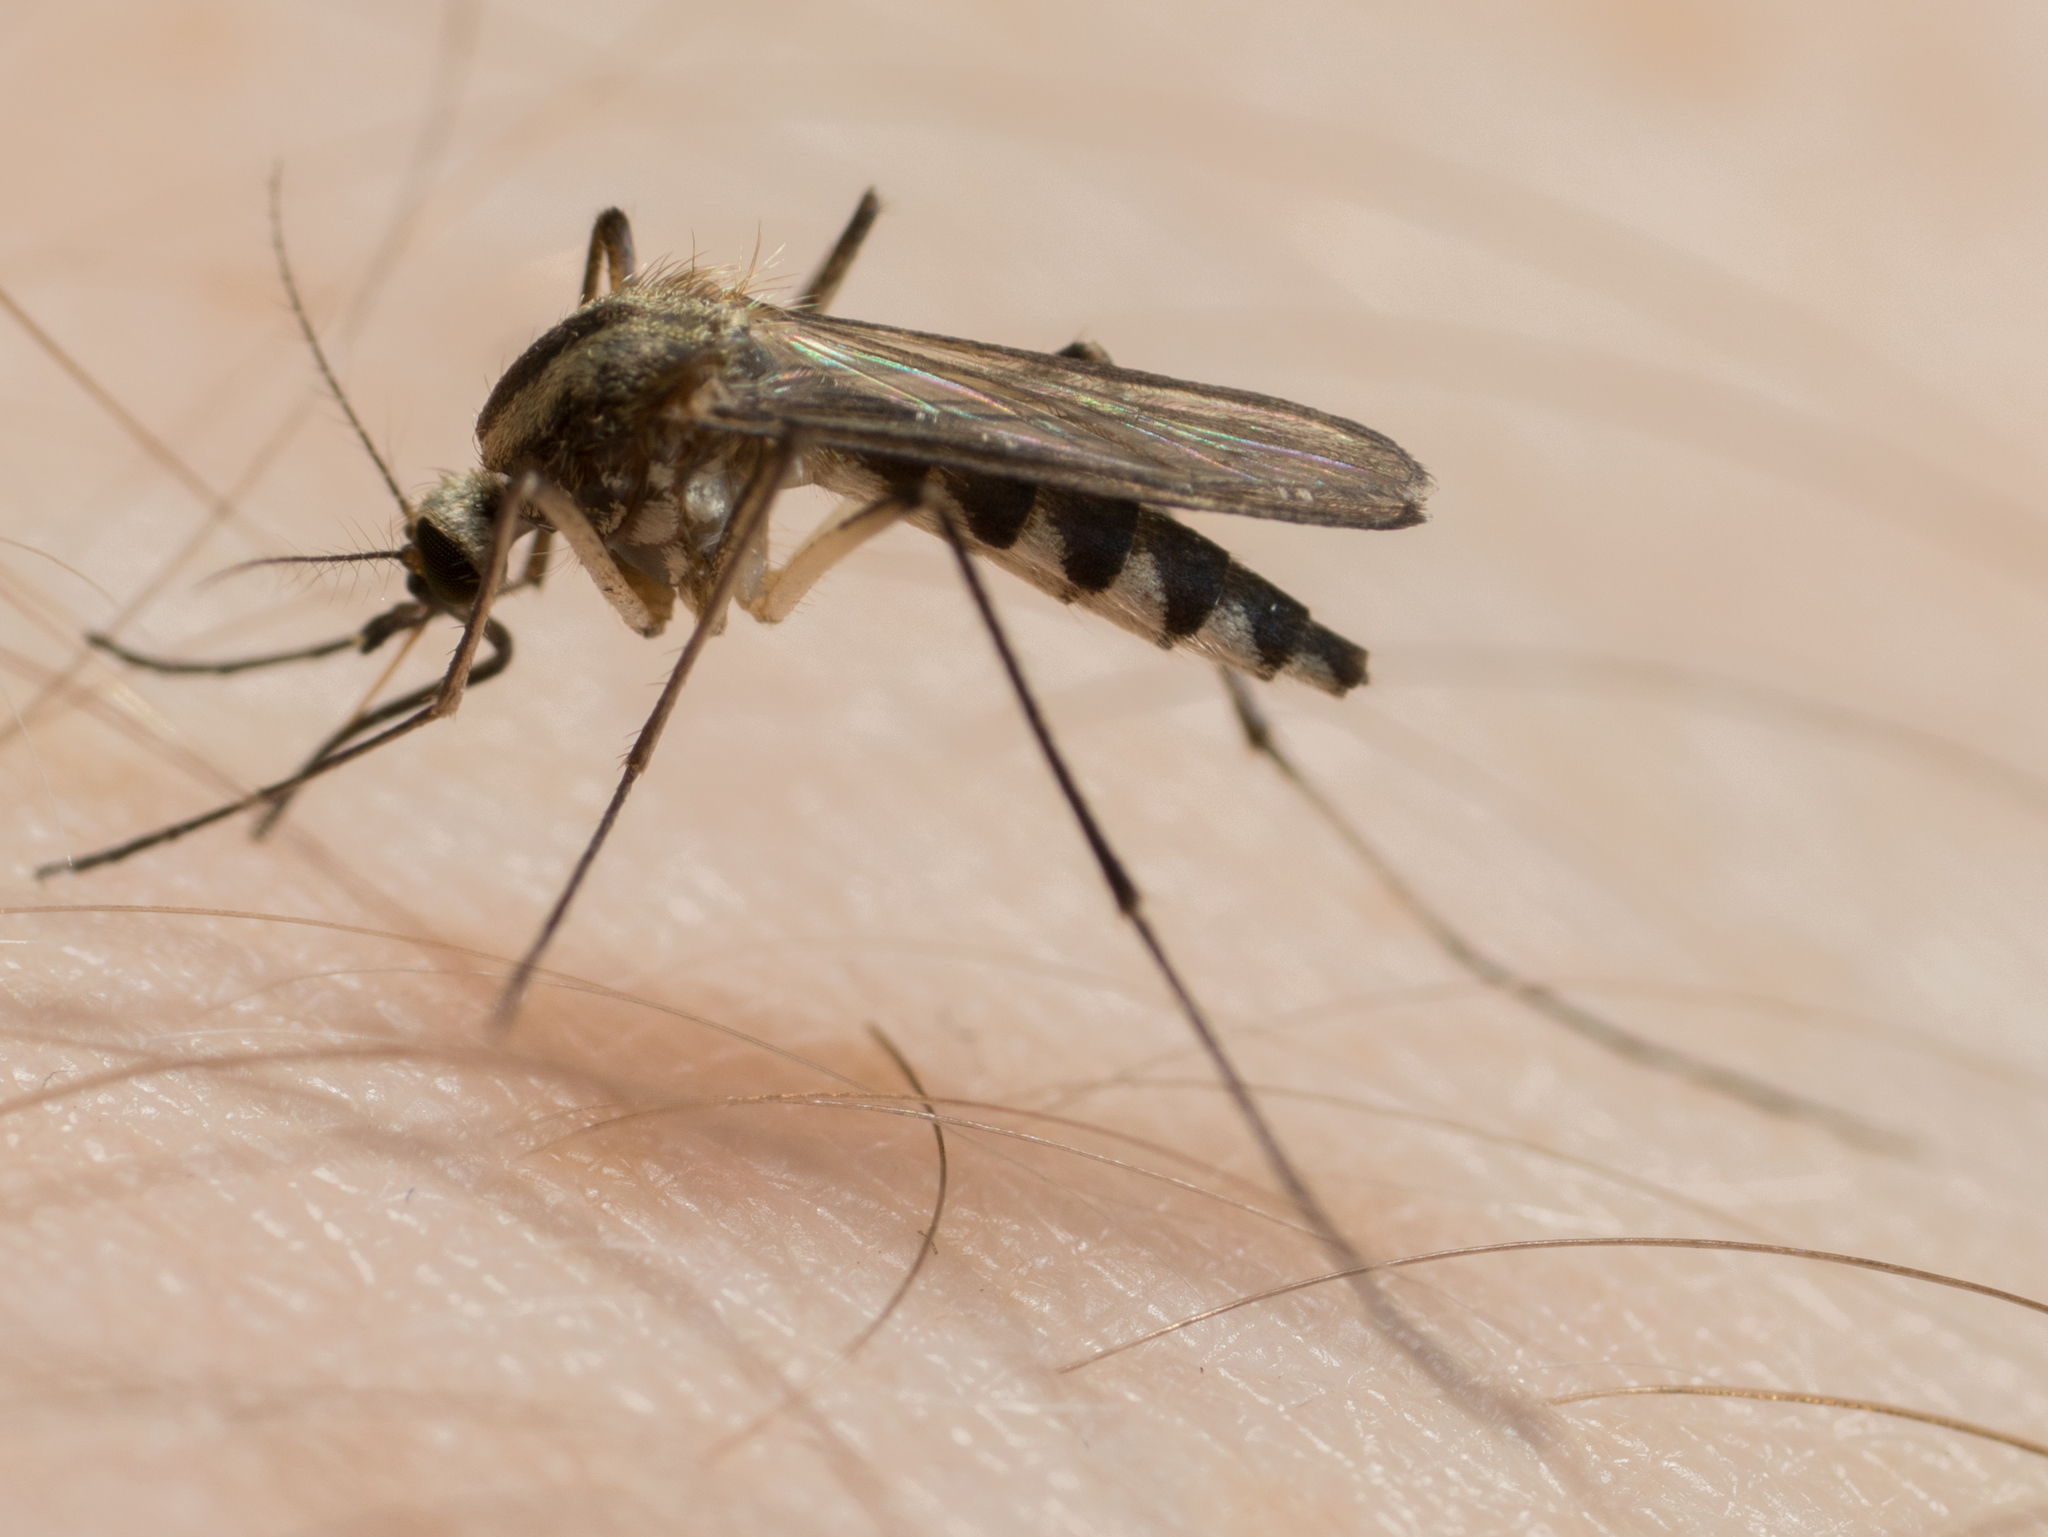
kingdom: Animalia
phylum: Arthropoda
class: Insecta
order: Diptera
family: Culicidae
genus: Aedes
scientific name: Aedes trivittatus
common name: Plains floodwater mosquito
